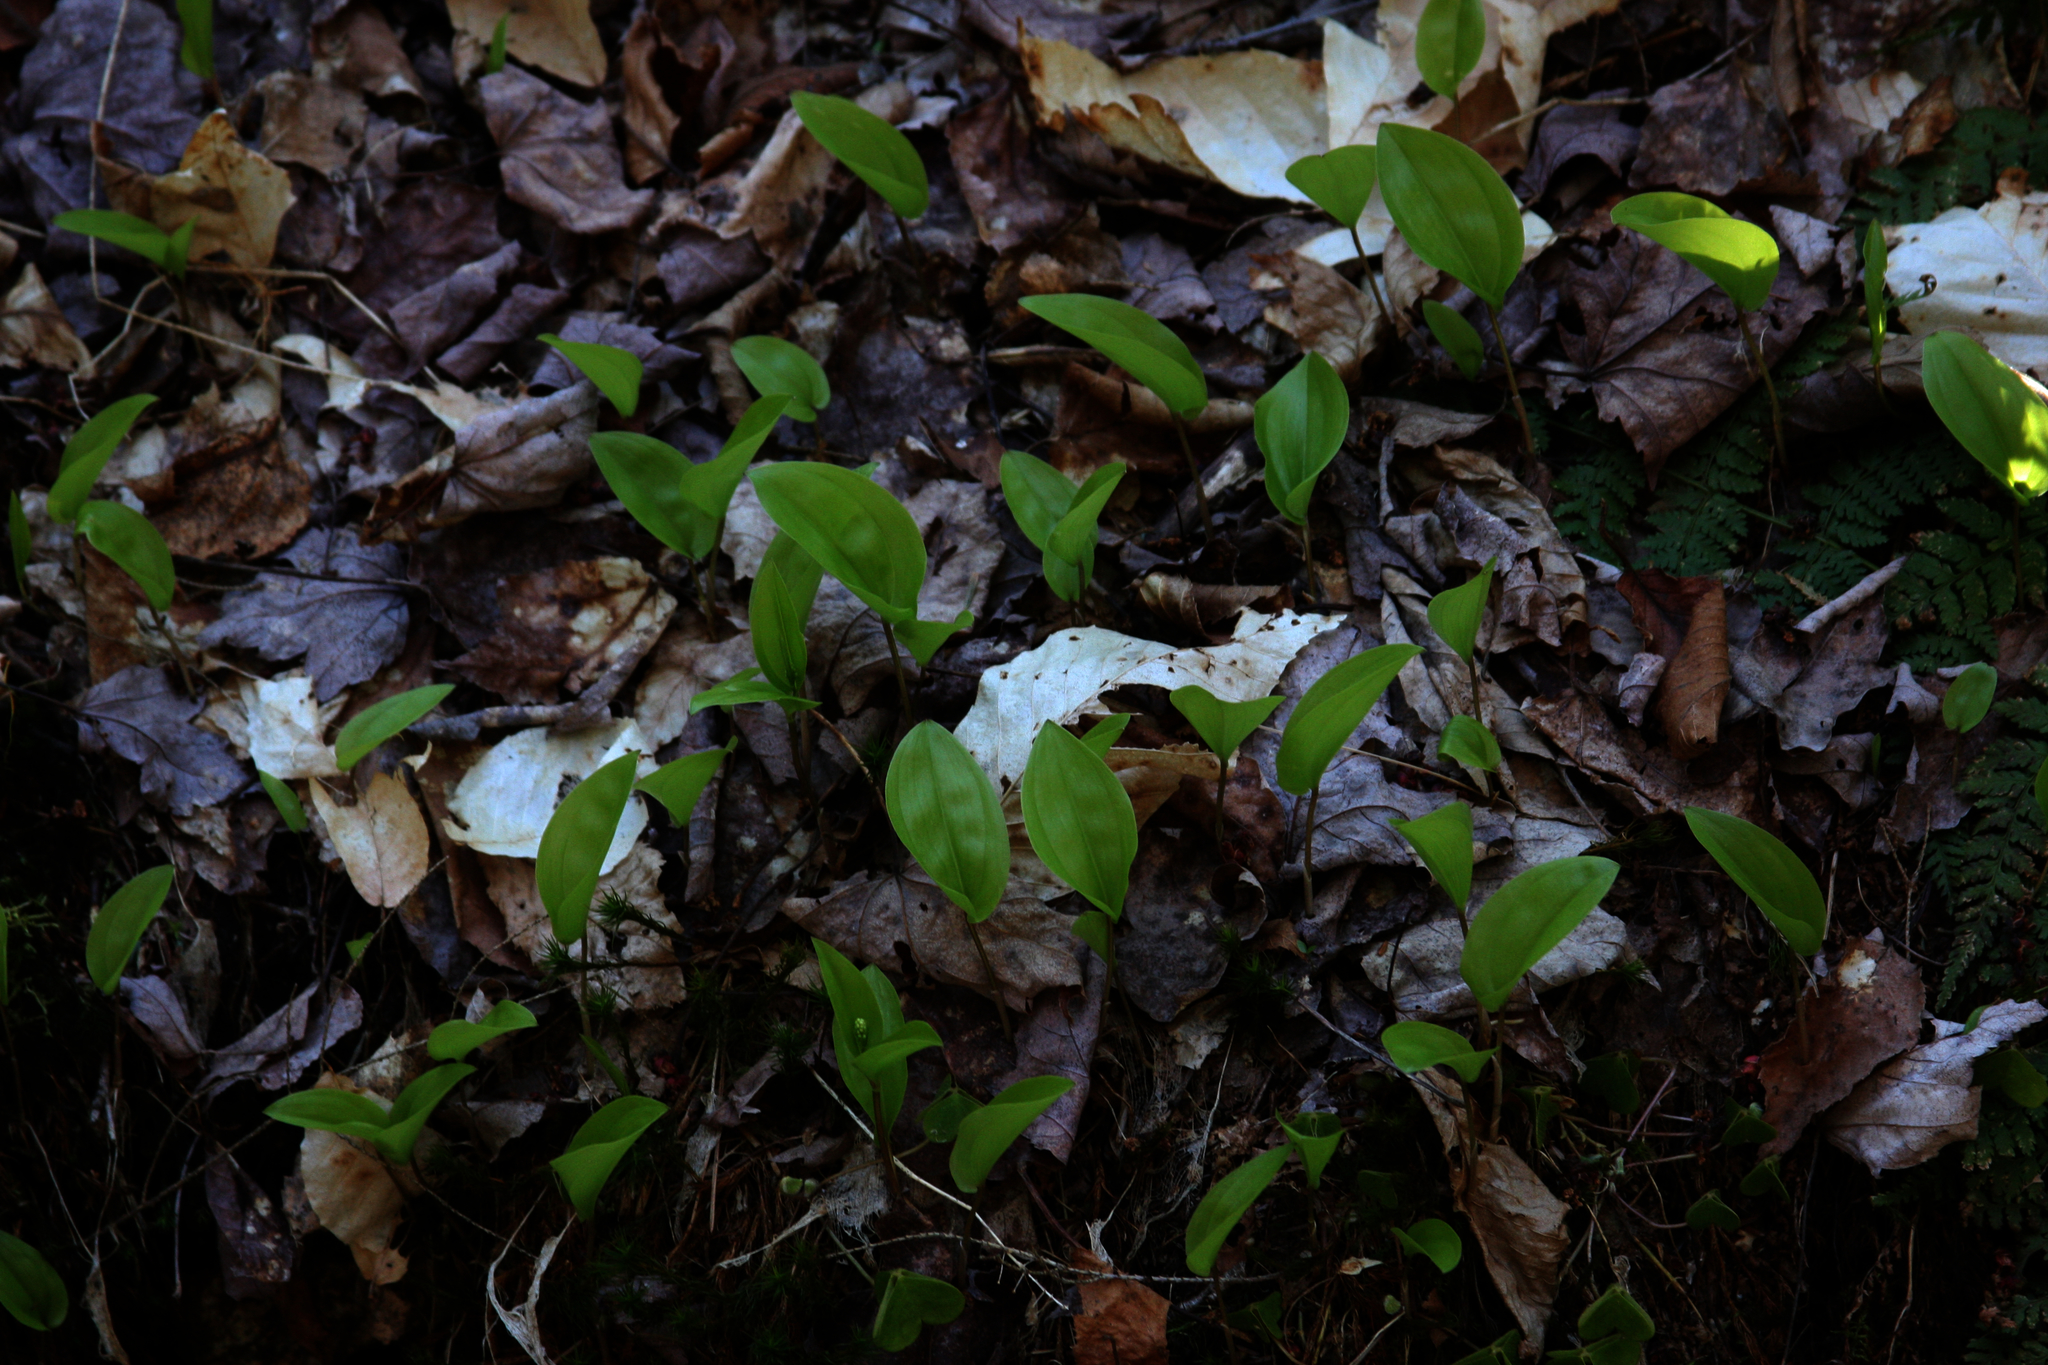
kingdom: Plantae
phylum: Tracheophyta
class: Liliopsida
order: Asparagales
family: Asparagaceae
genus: Maianthemum
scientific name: Maianthemum canadense
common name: False lily-of-the-valley
